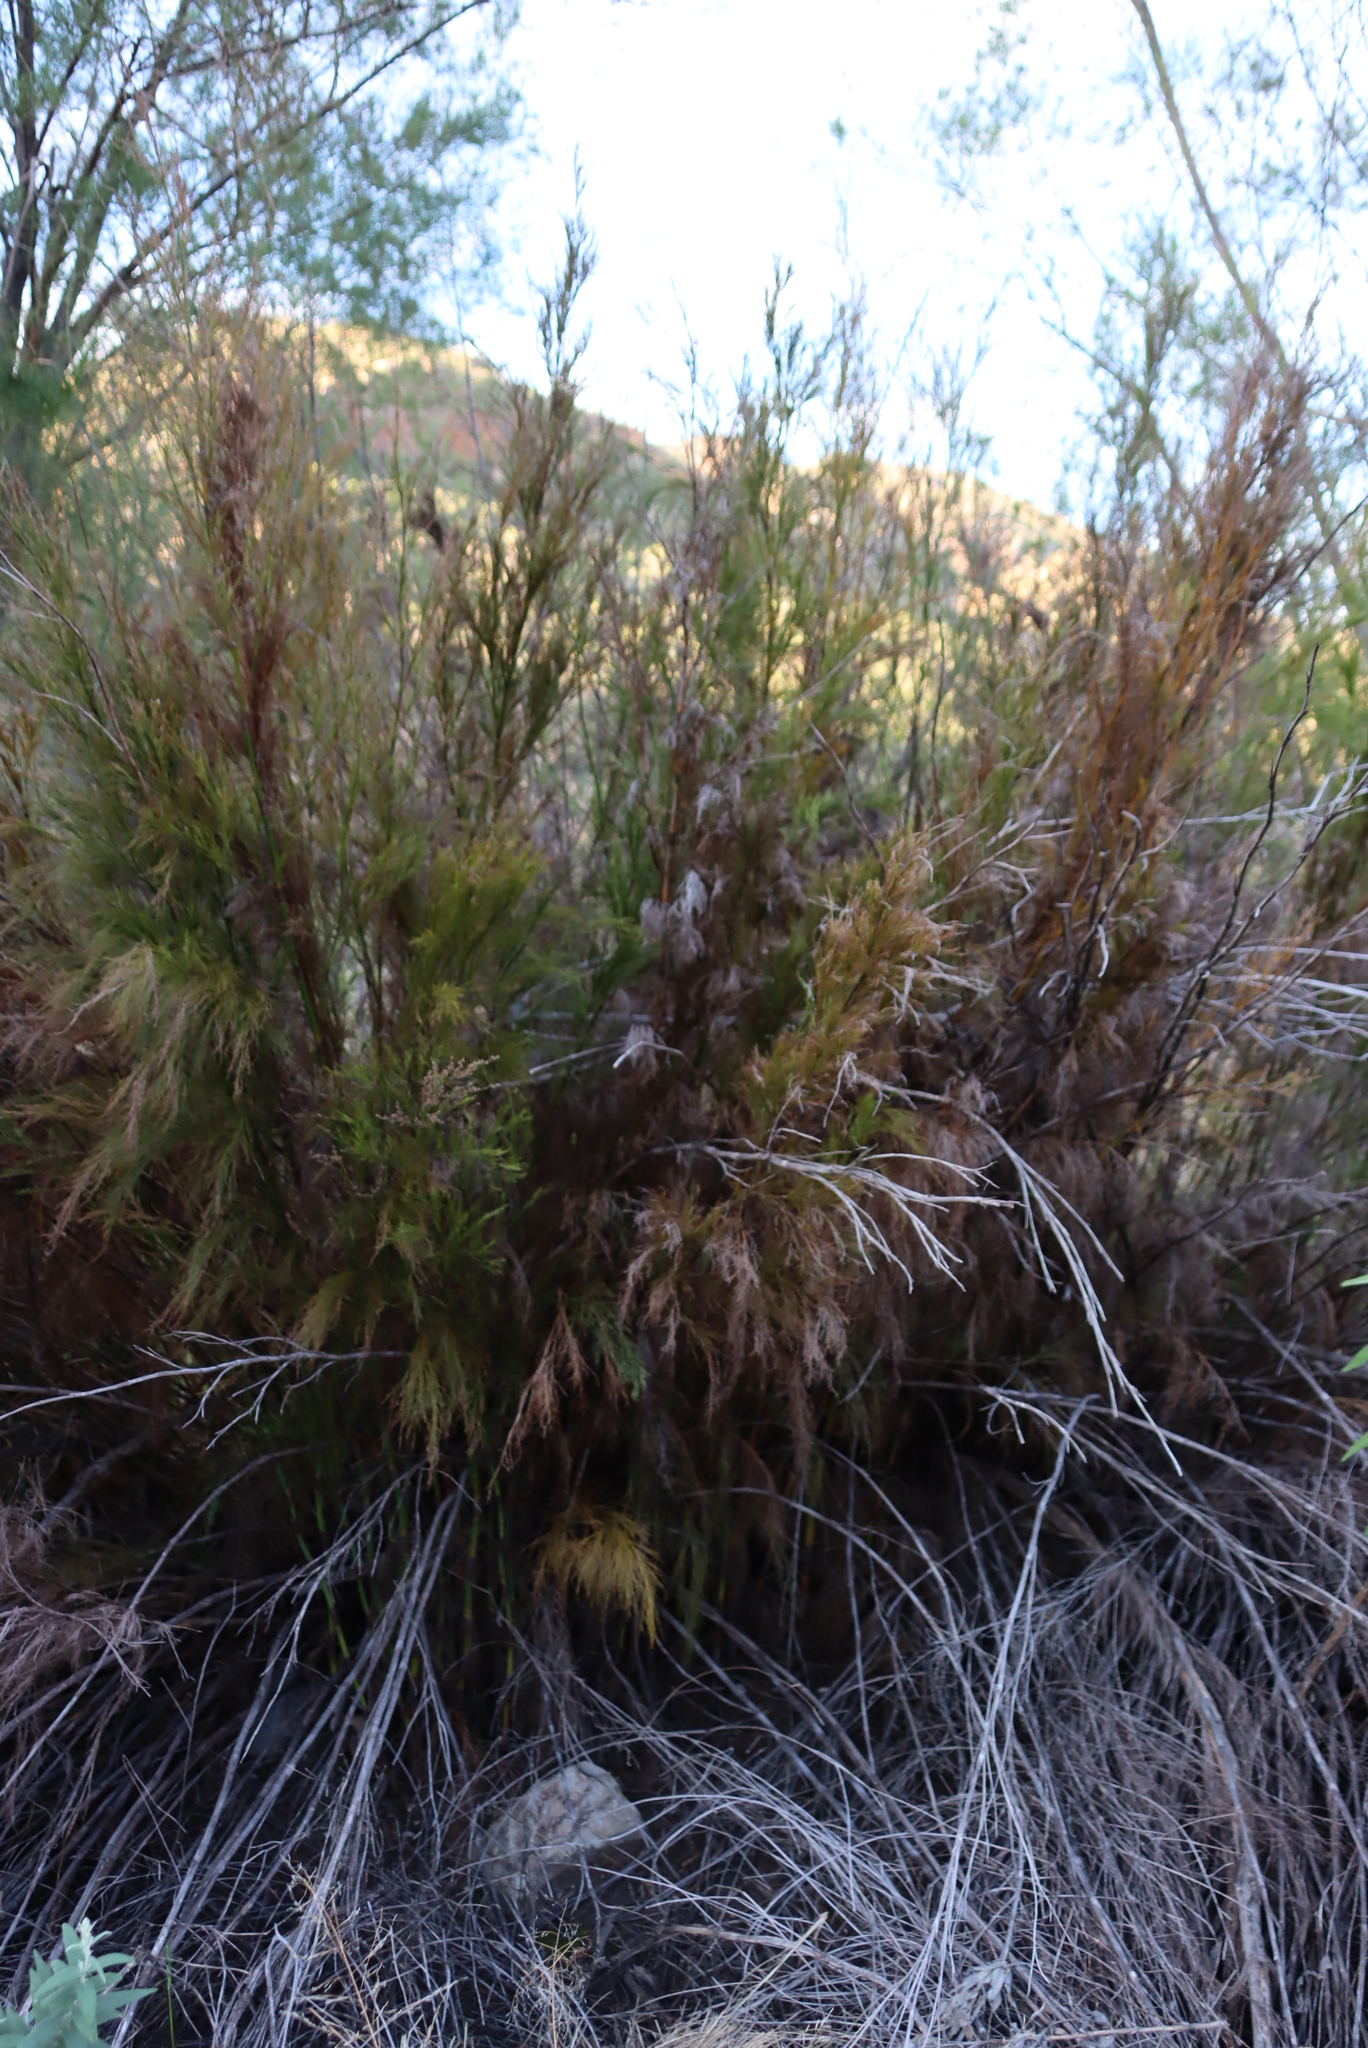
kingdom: Plantae
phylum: Tracheophyta
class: Liliopsida
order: Poales
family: Restionaceae
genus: Restio
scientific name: Restio paniculatus
